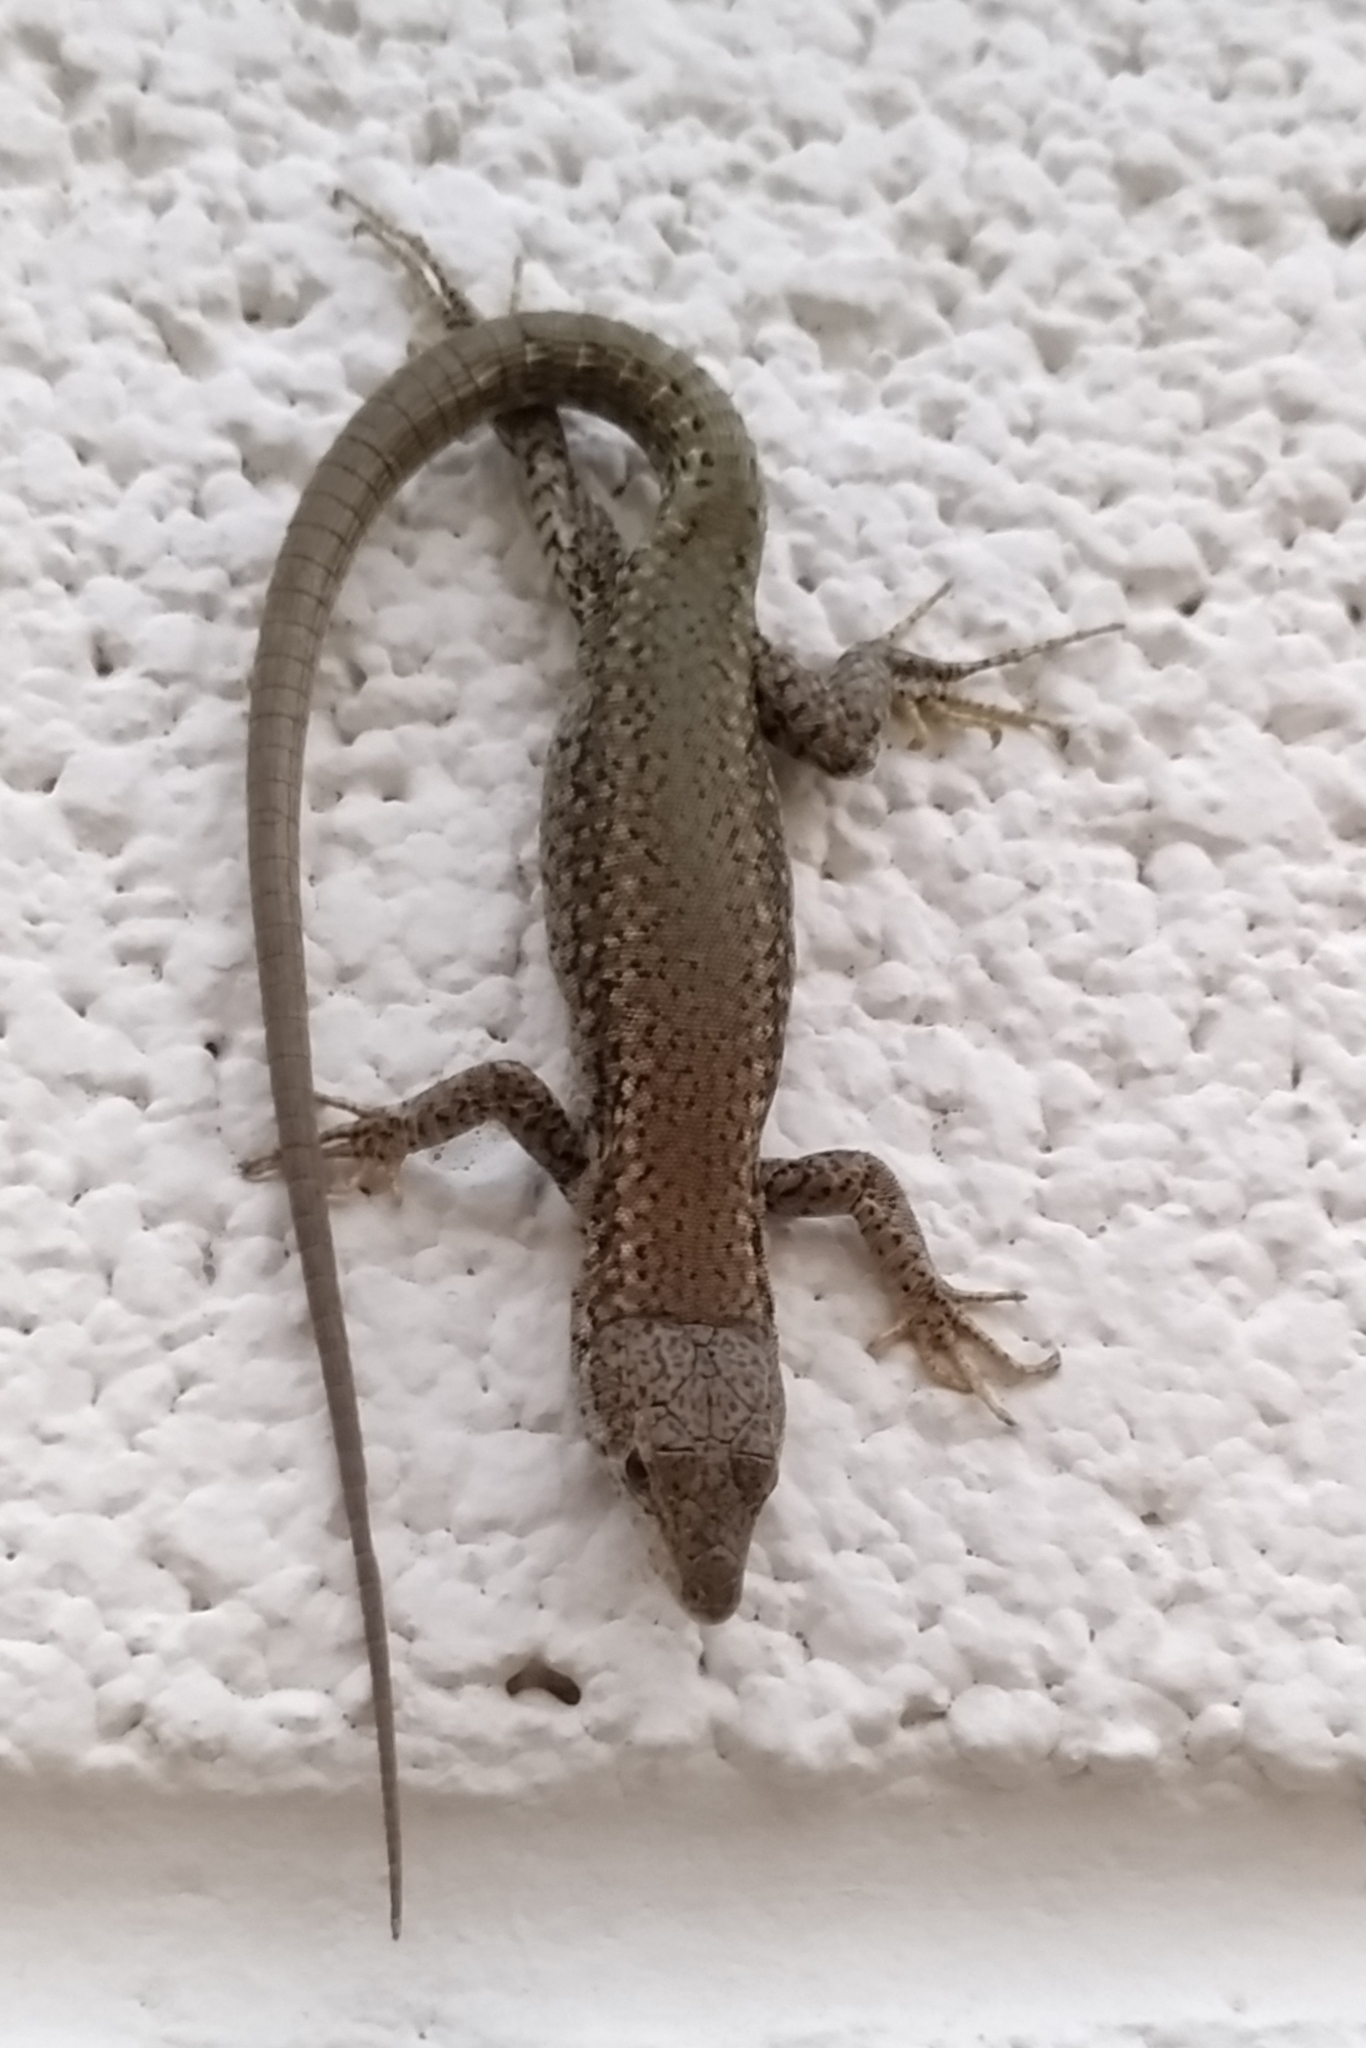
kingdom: Animalia
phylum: Chordata
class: Squamata
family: Lacertidae
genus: Podarcis
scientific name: Podarcis vaucheri
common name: Vaucher's wall lizard
